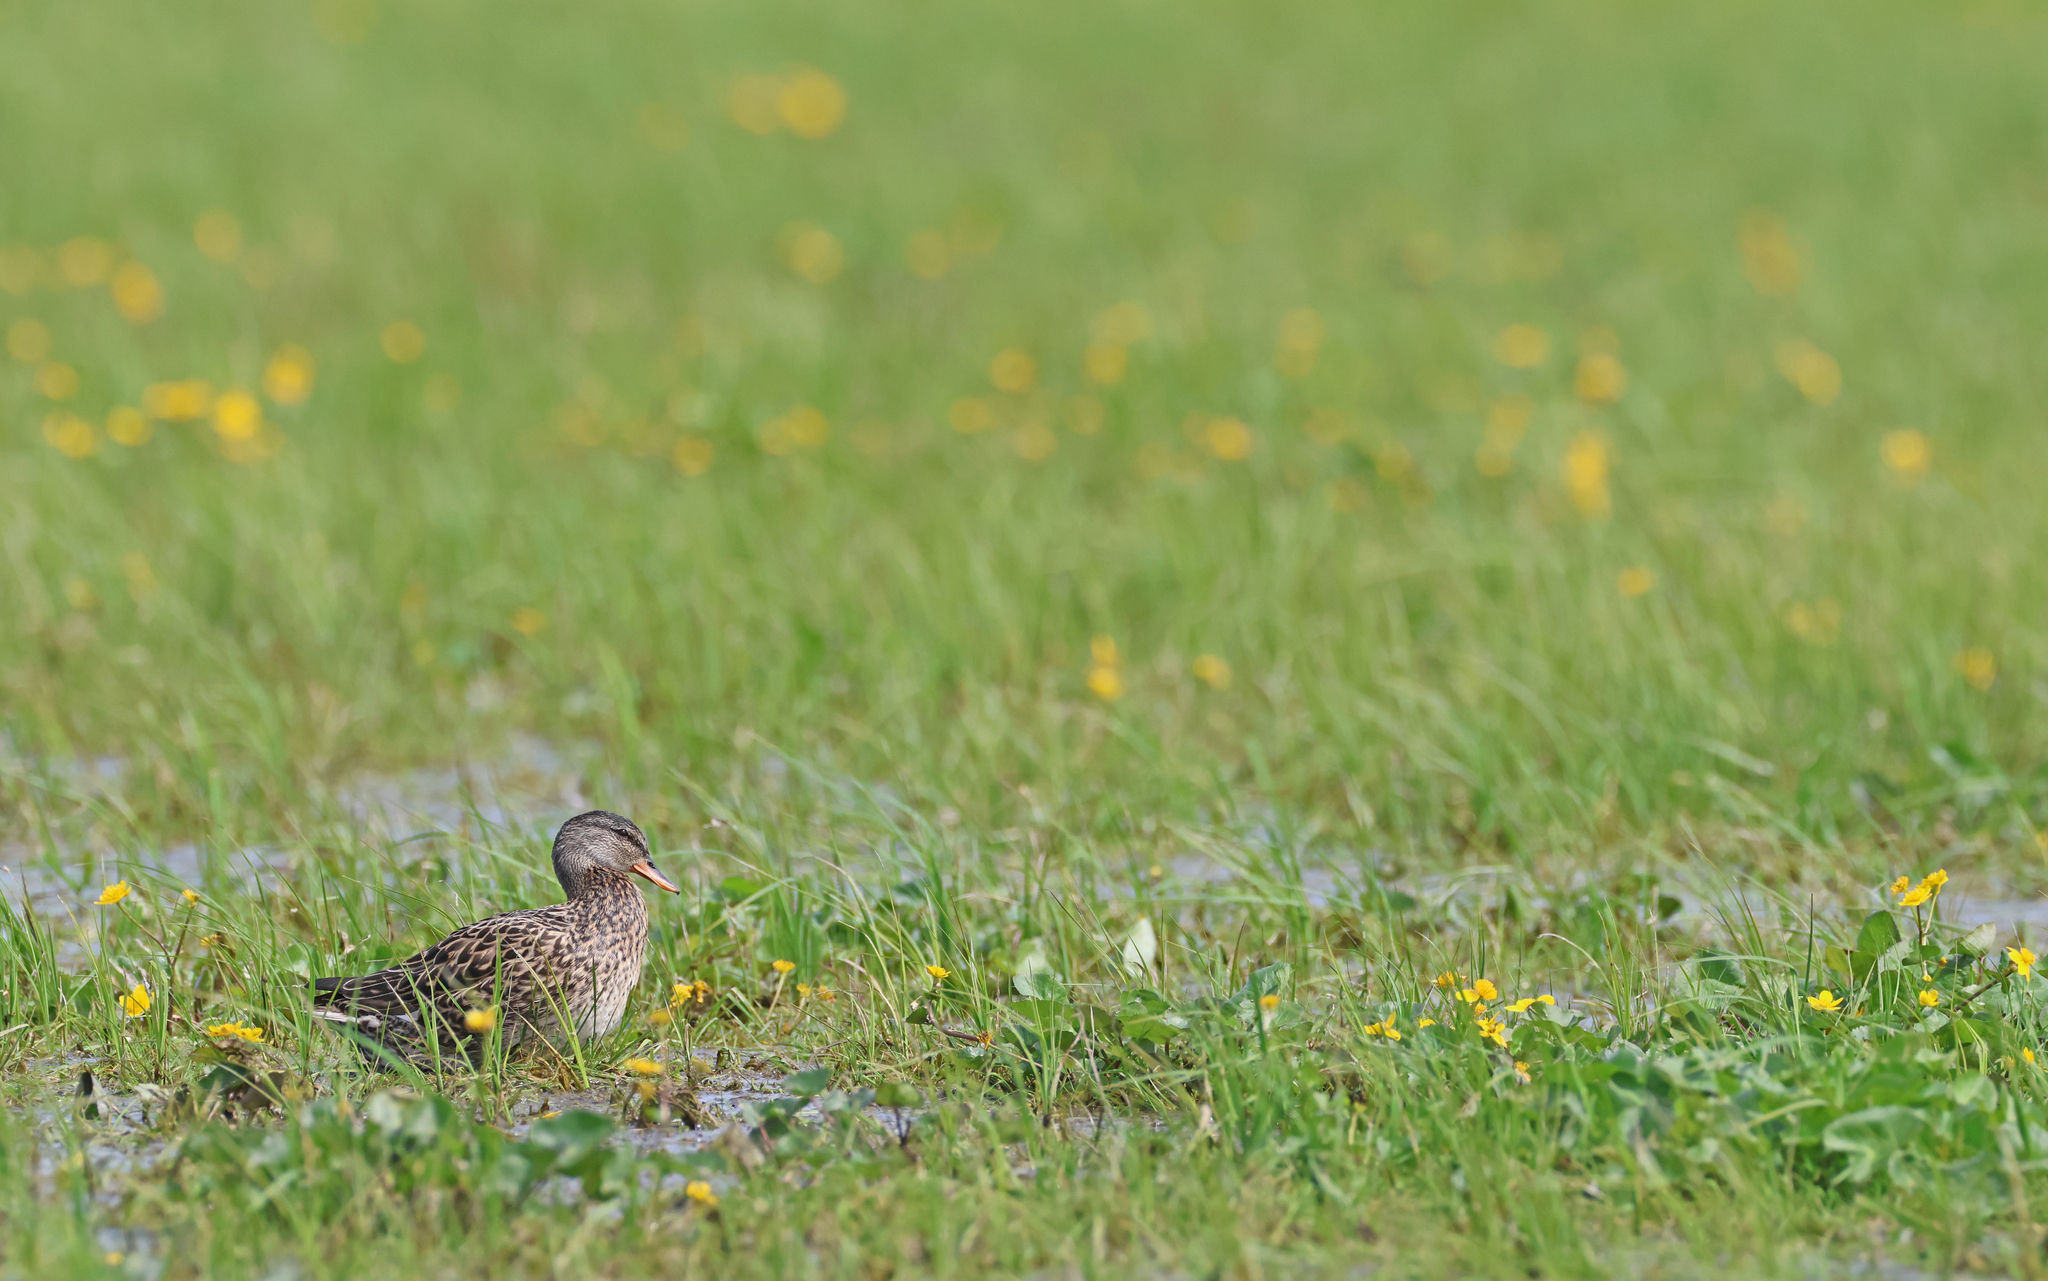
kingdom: Animalia
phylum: Chordata
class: Aves
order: Anseriformes
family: Anatidae
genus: Mareca
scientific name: Mareca strepera
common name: Gadwall
